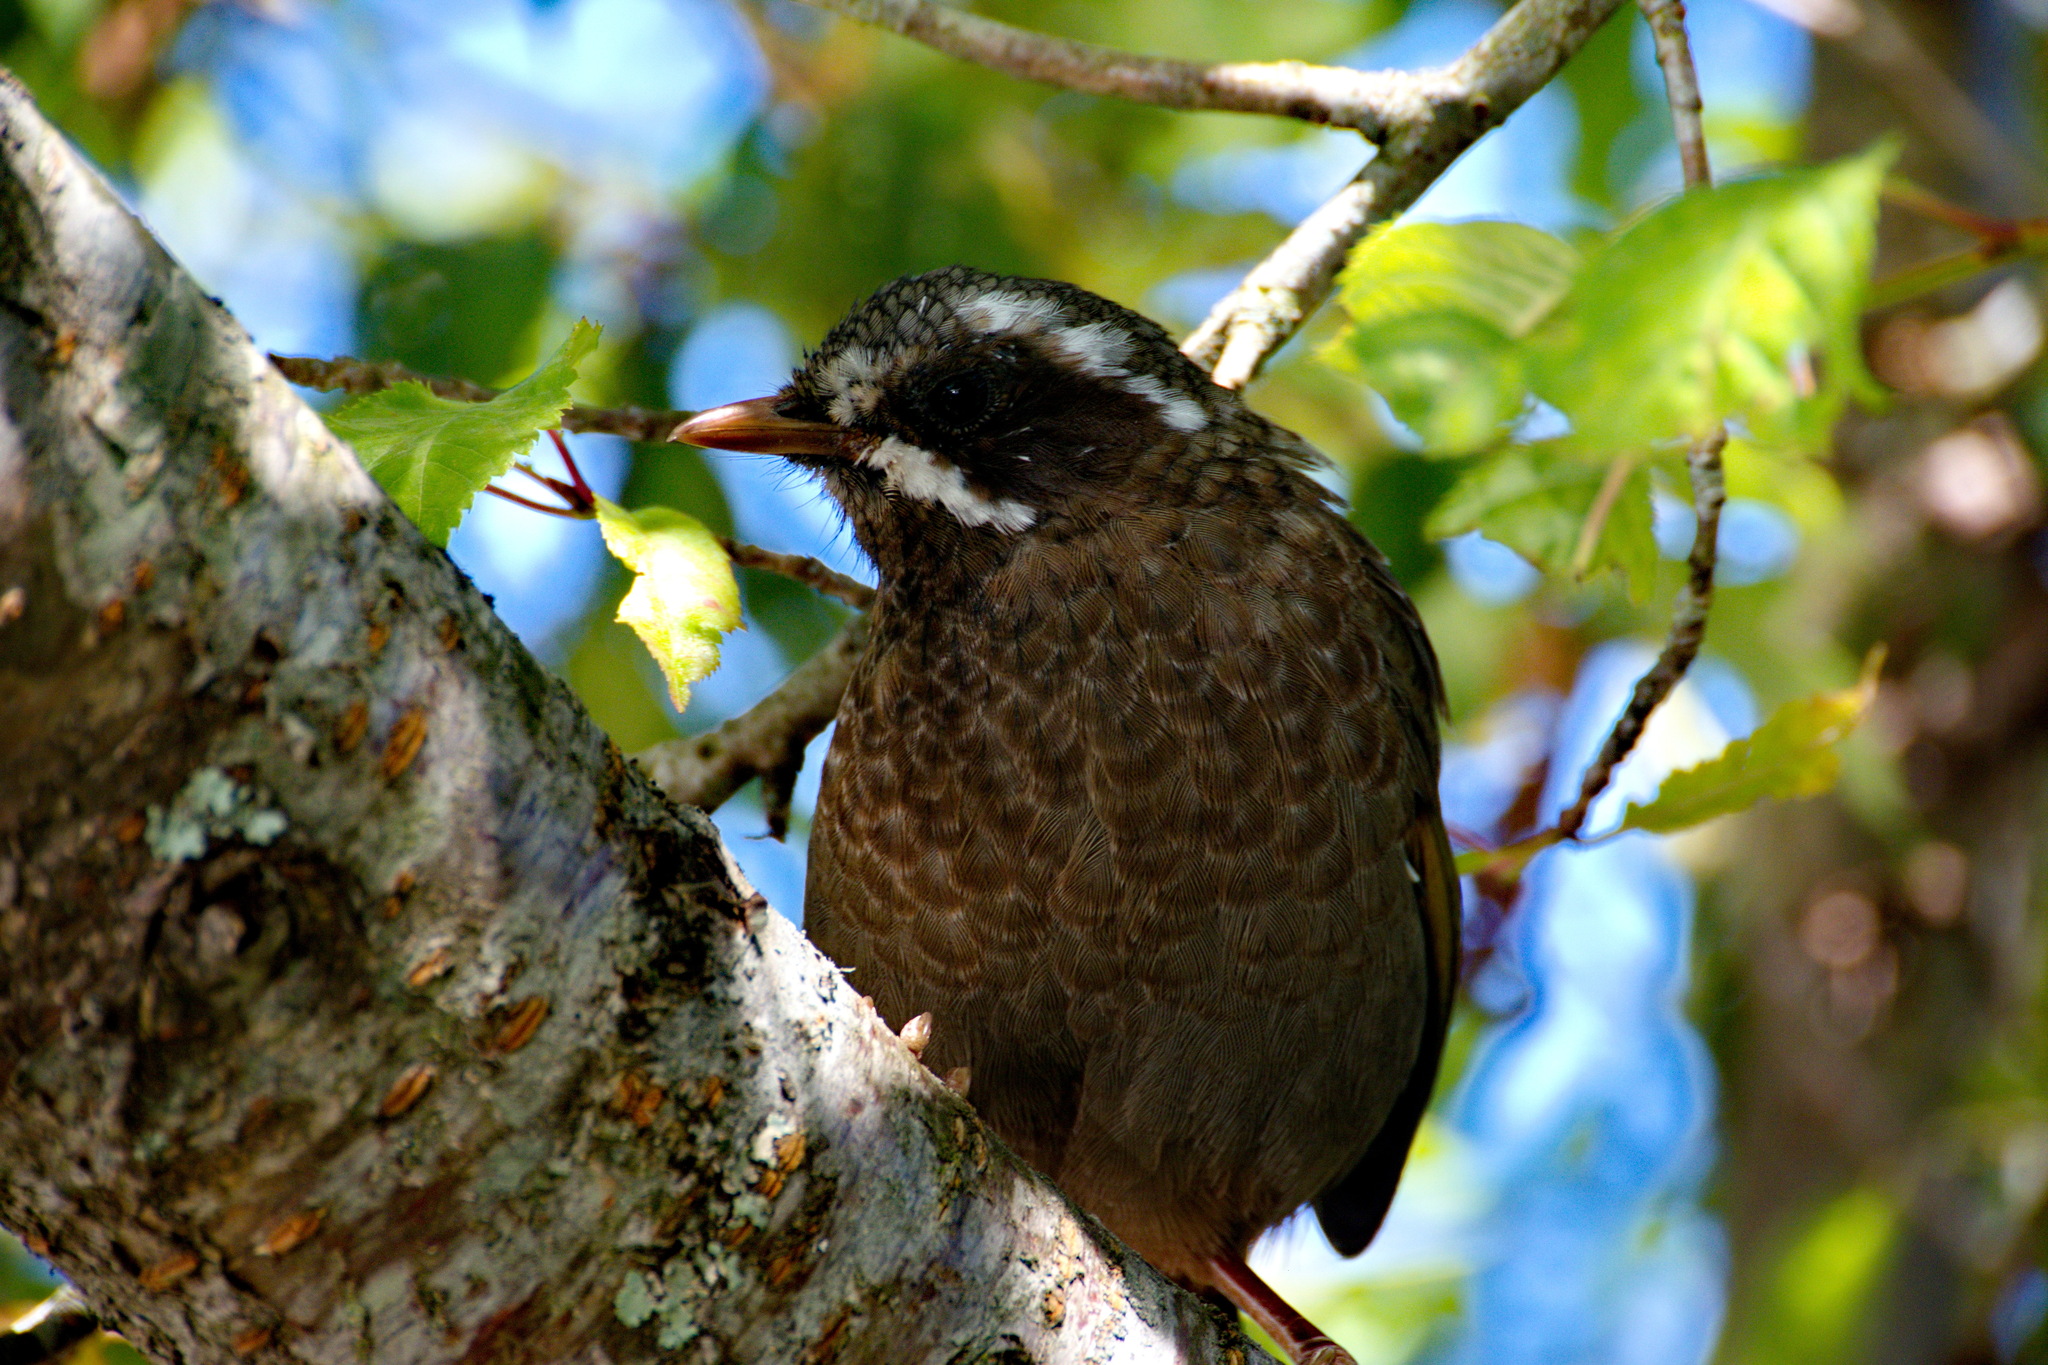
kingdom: Animalia
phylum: Chordata
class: Aves
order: Passeriformes
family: Leiothrichidae
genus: Trochalopteron
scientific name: Trochalopteron morrisonianum
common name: White-whiskered laughingthrush
